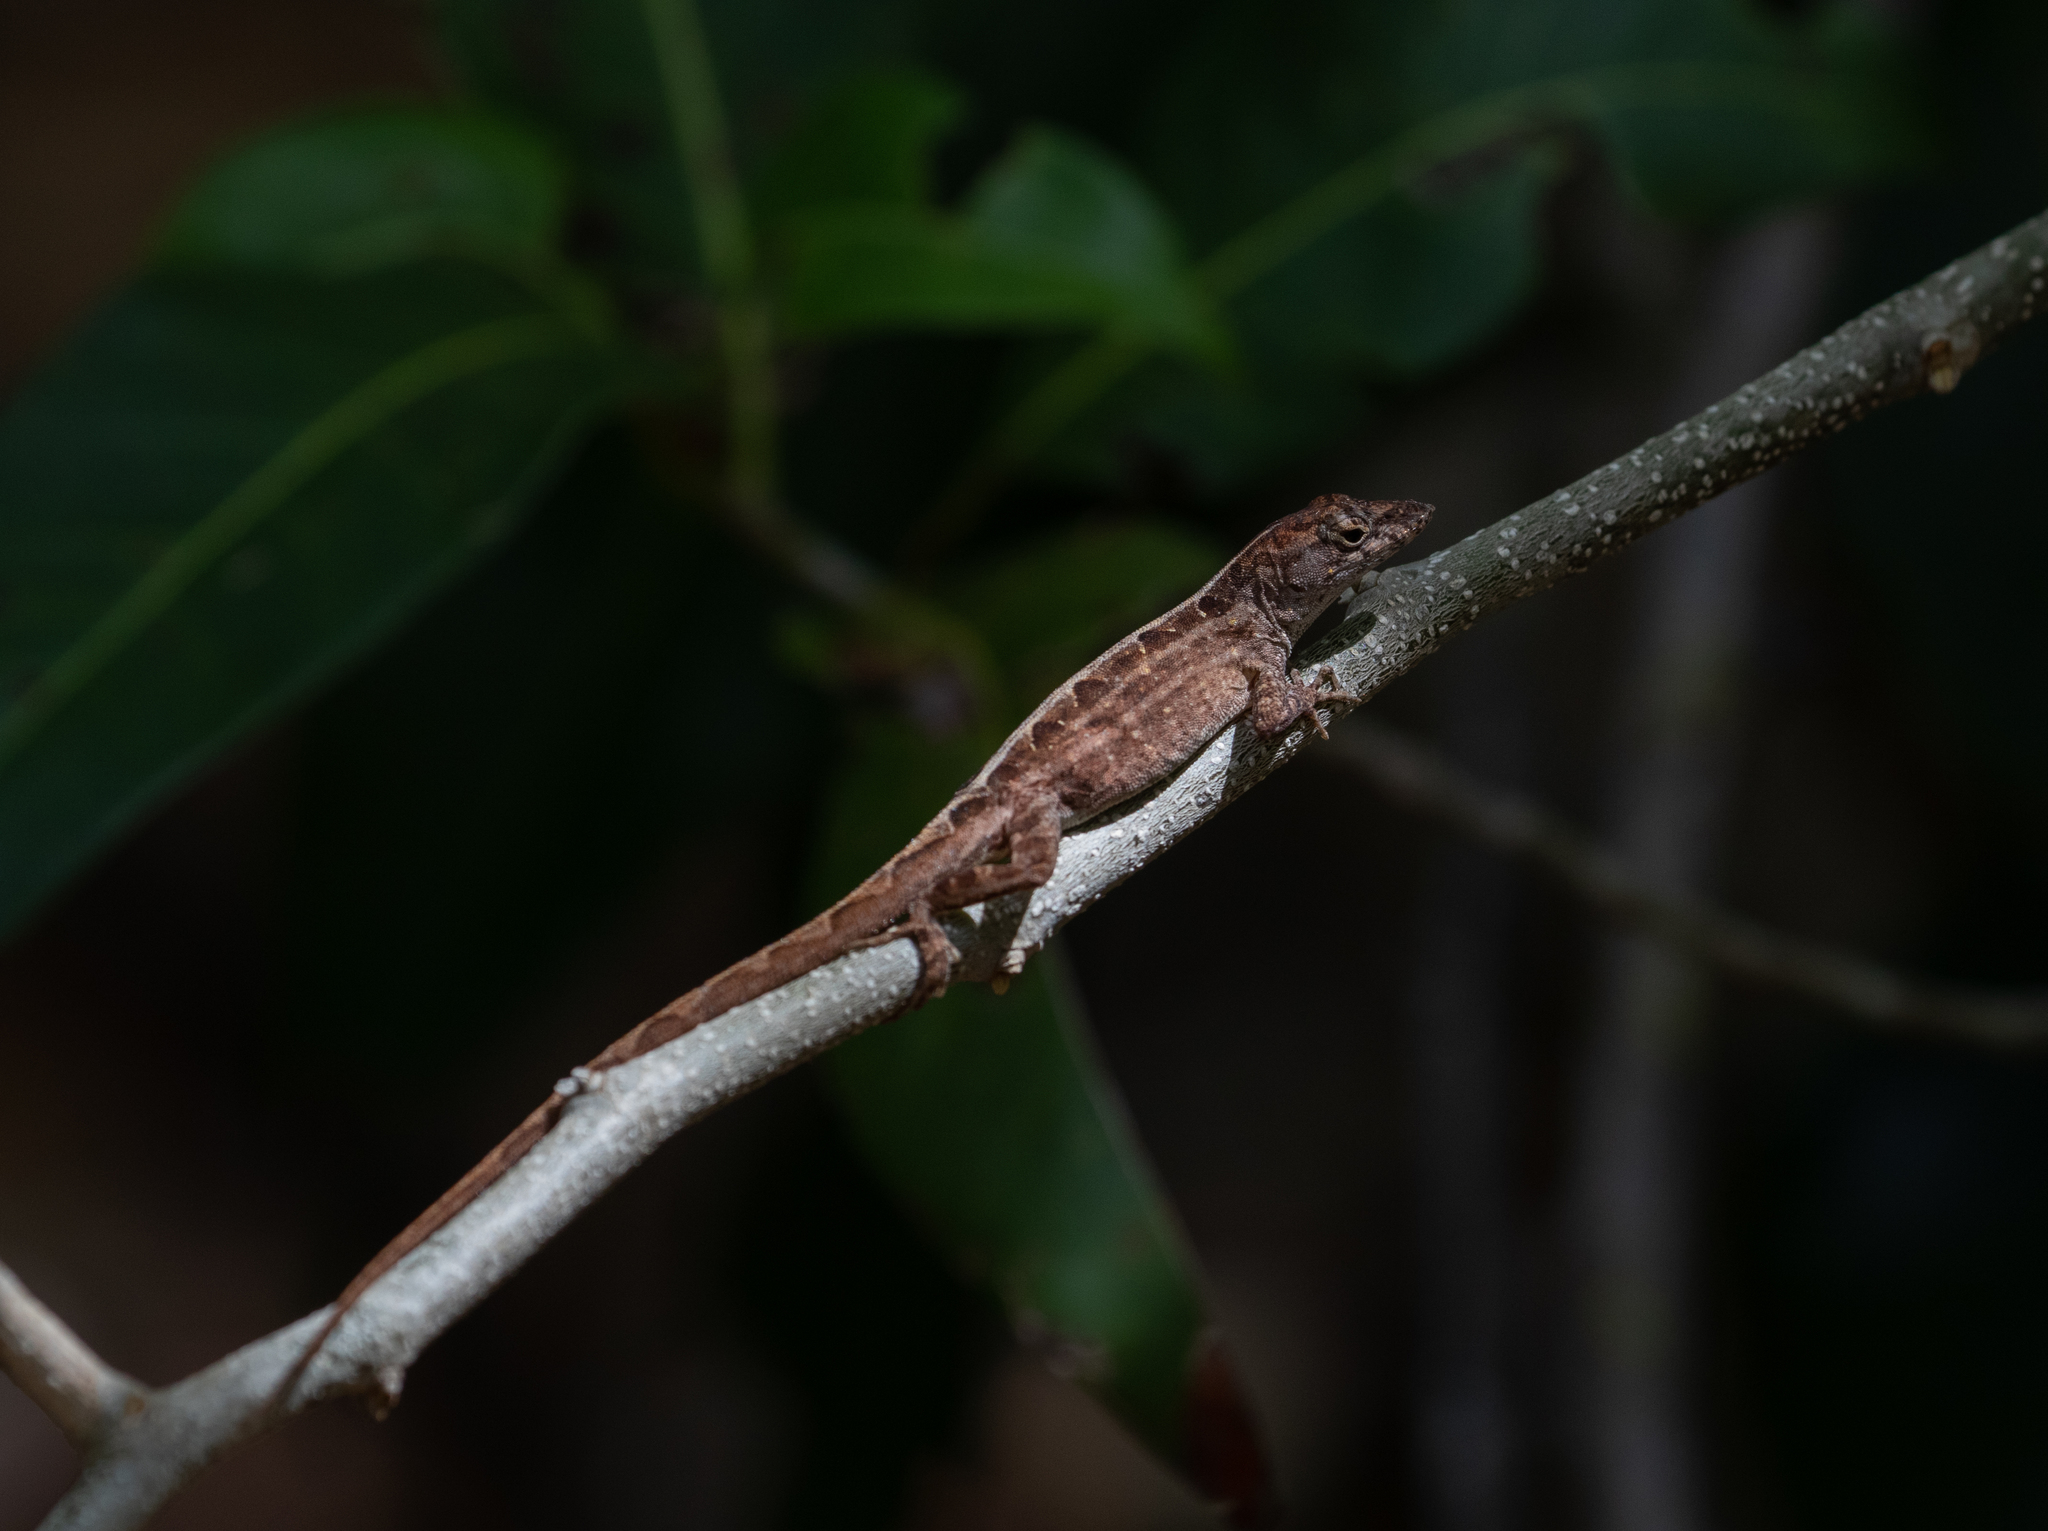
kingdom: Animalia
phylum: Chordata
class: Squamata
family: Dactyloidae
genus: Anolis
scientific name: Anolis sagrei
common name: Brown anole
